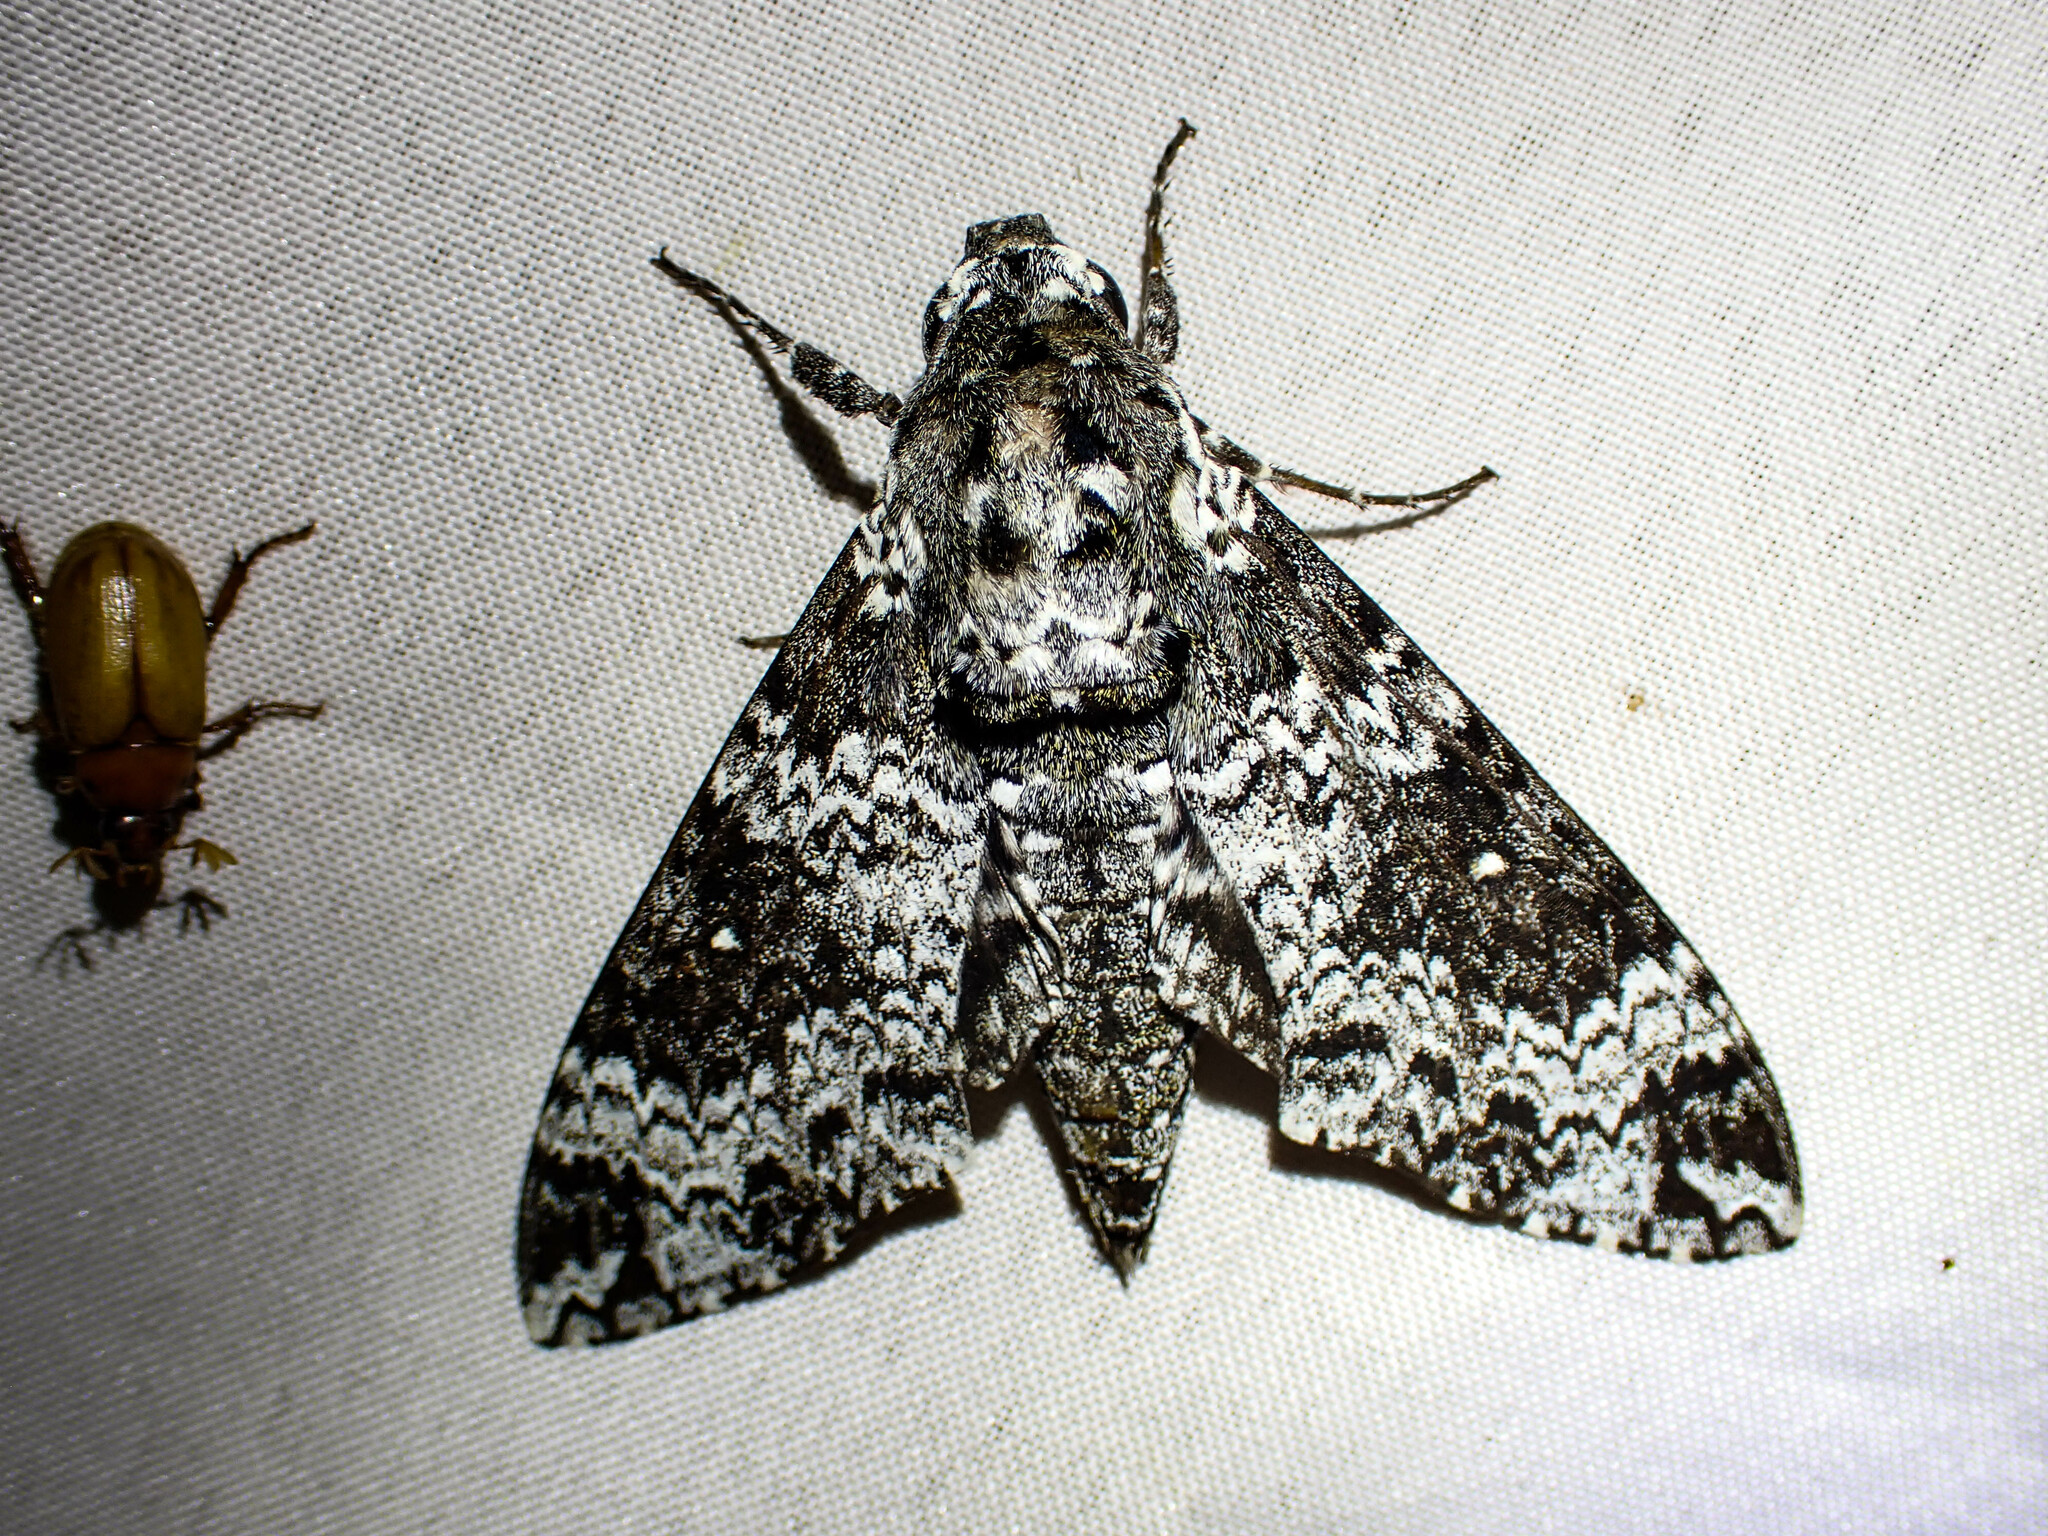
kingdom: Animalia
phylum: Arthropoda
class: Insecta
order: Lepidoptera
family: Sphingidae
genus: Manduca
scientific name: Manduca rustica
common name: Rustic sphinx
